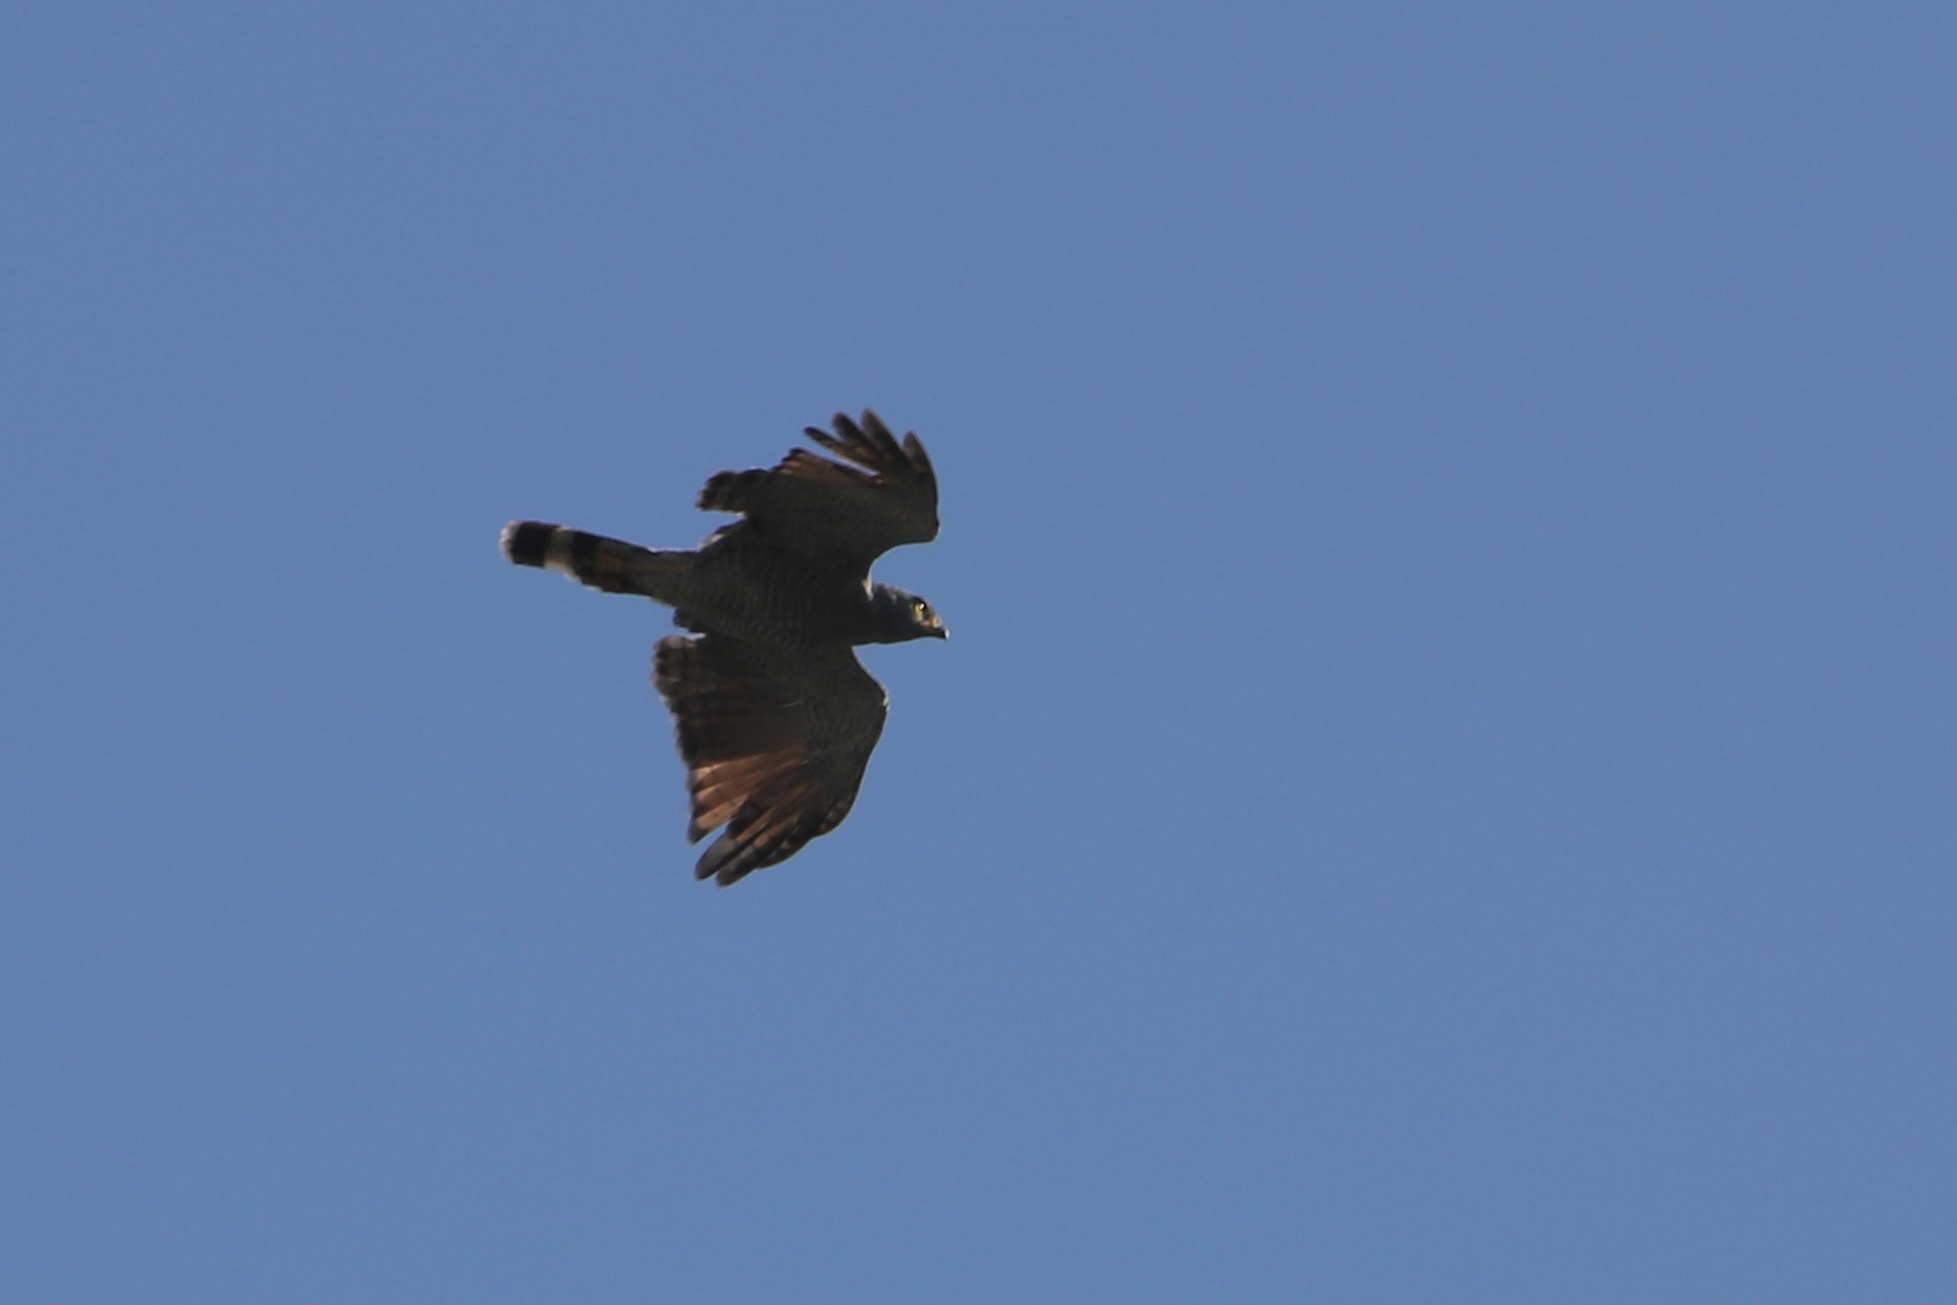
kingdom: Animalia
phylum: Chordata
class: Aves
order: Accipitriformes
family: Accipitridae
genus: Rupornis
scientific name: Rupornis magnirostris
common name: Roadside hawk
